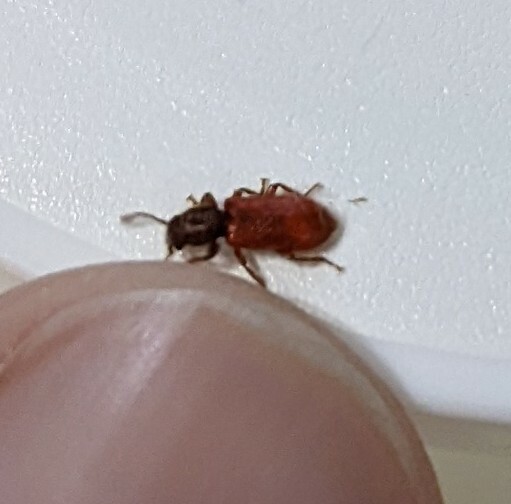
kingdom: Animalia
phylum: Arthropoda
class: Insecta
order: Coleoptera
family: Thanerocleridae
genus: Zenodosus
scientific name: Zenodosus sanguineus
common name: Blood-colored checkered beetle
